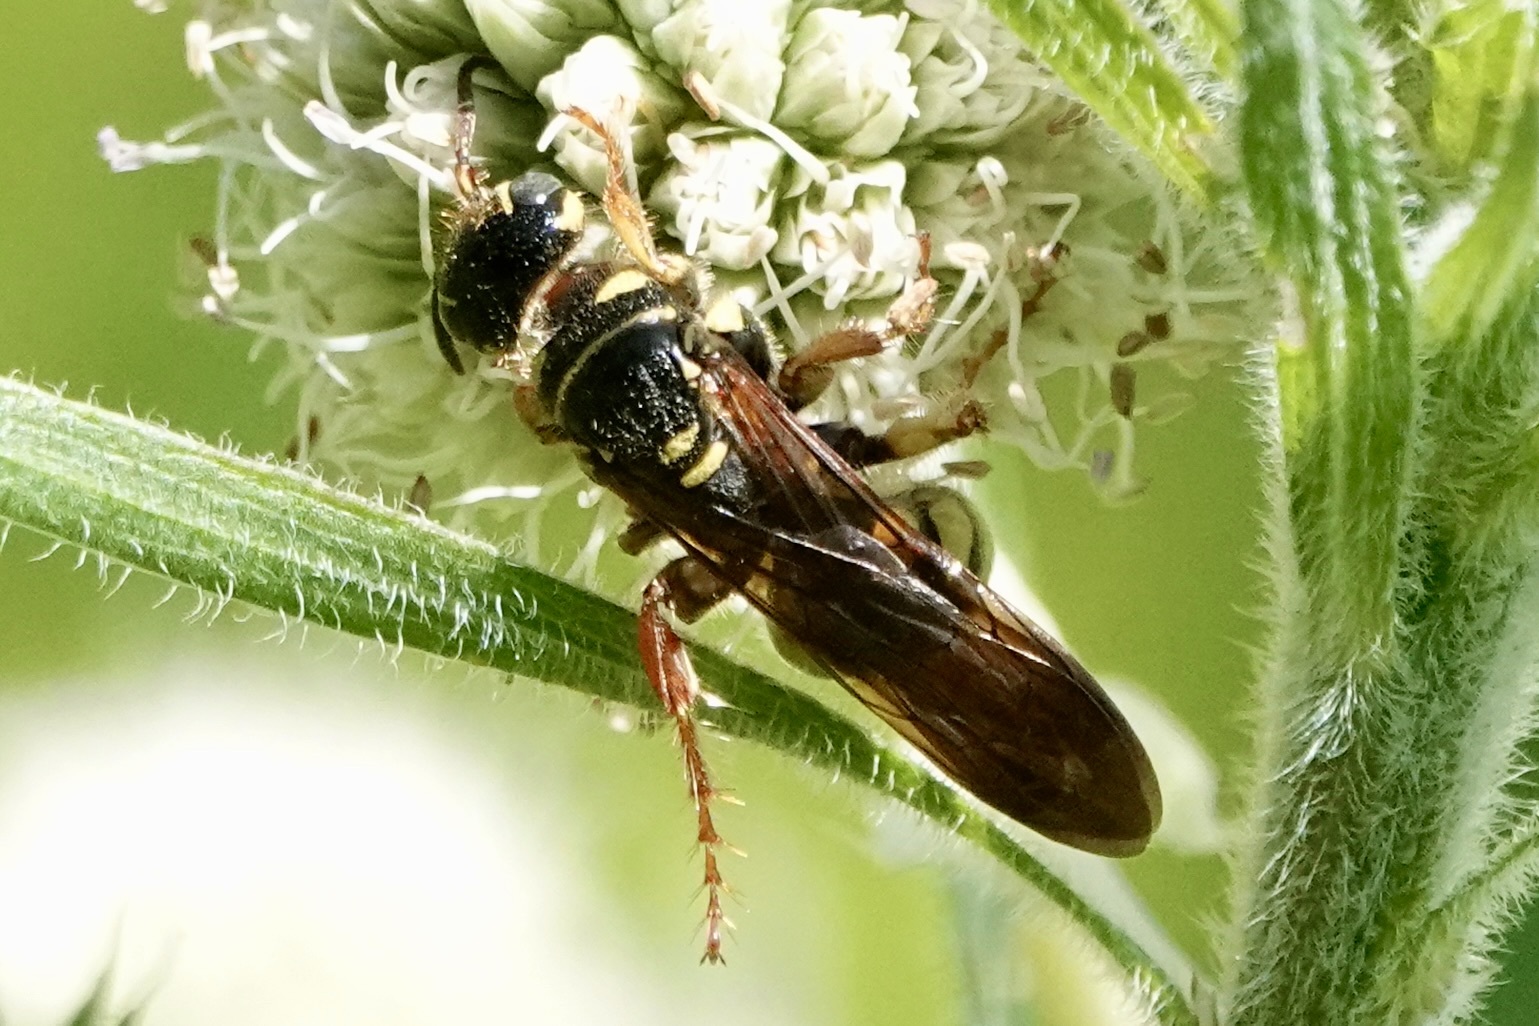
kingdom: Animalia
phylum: Arthropoda
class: Insecta
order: Hymenoptera
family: Tiphiidae
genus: Myzinum
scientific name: Myzinum quinquecinctum
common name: Five-banded thynnid wasp
